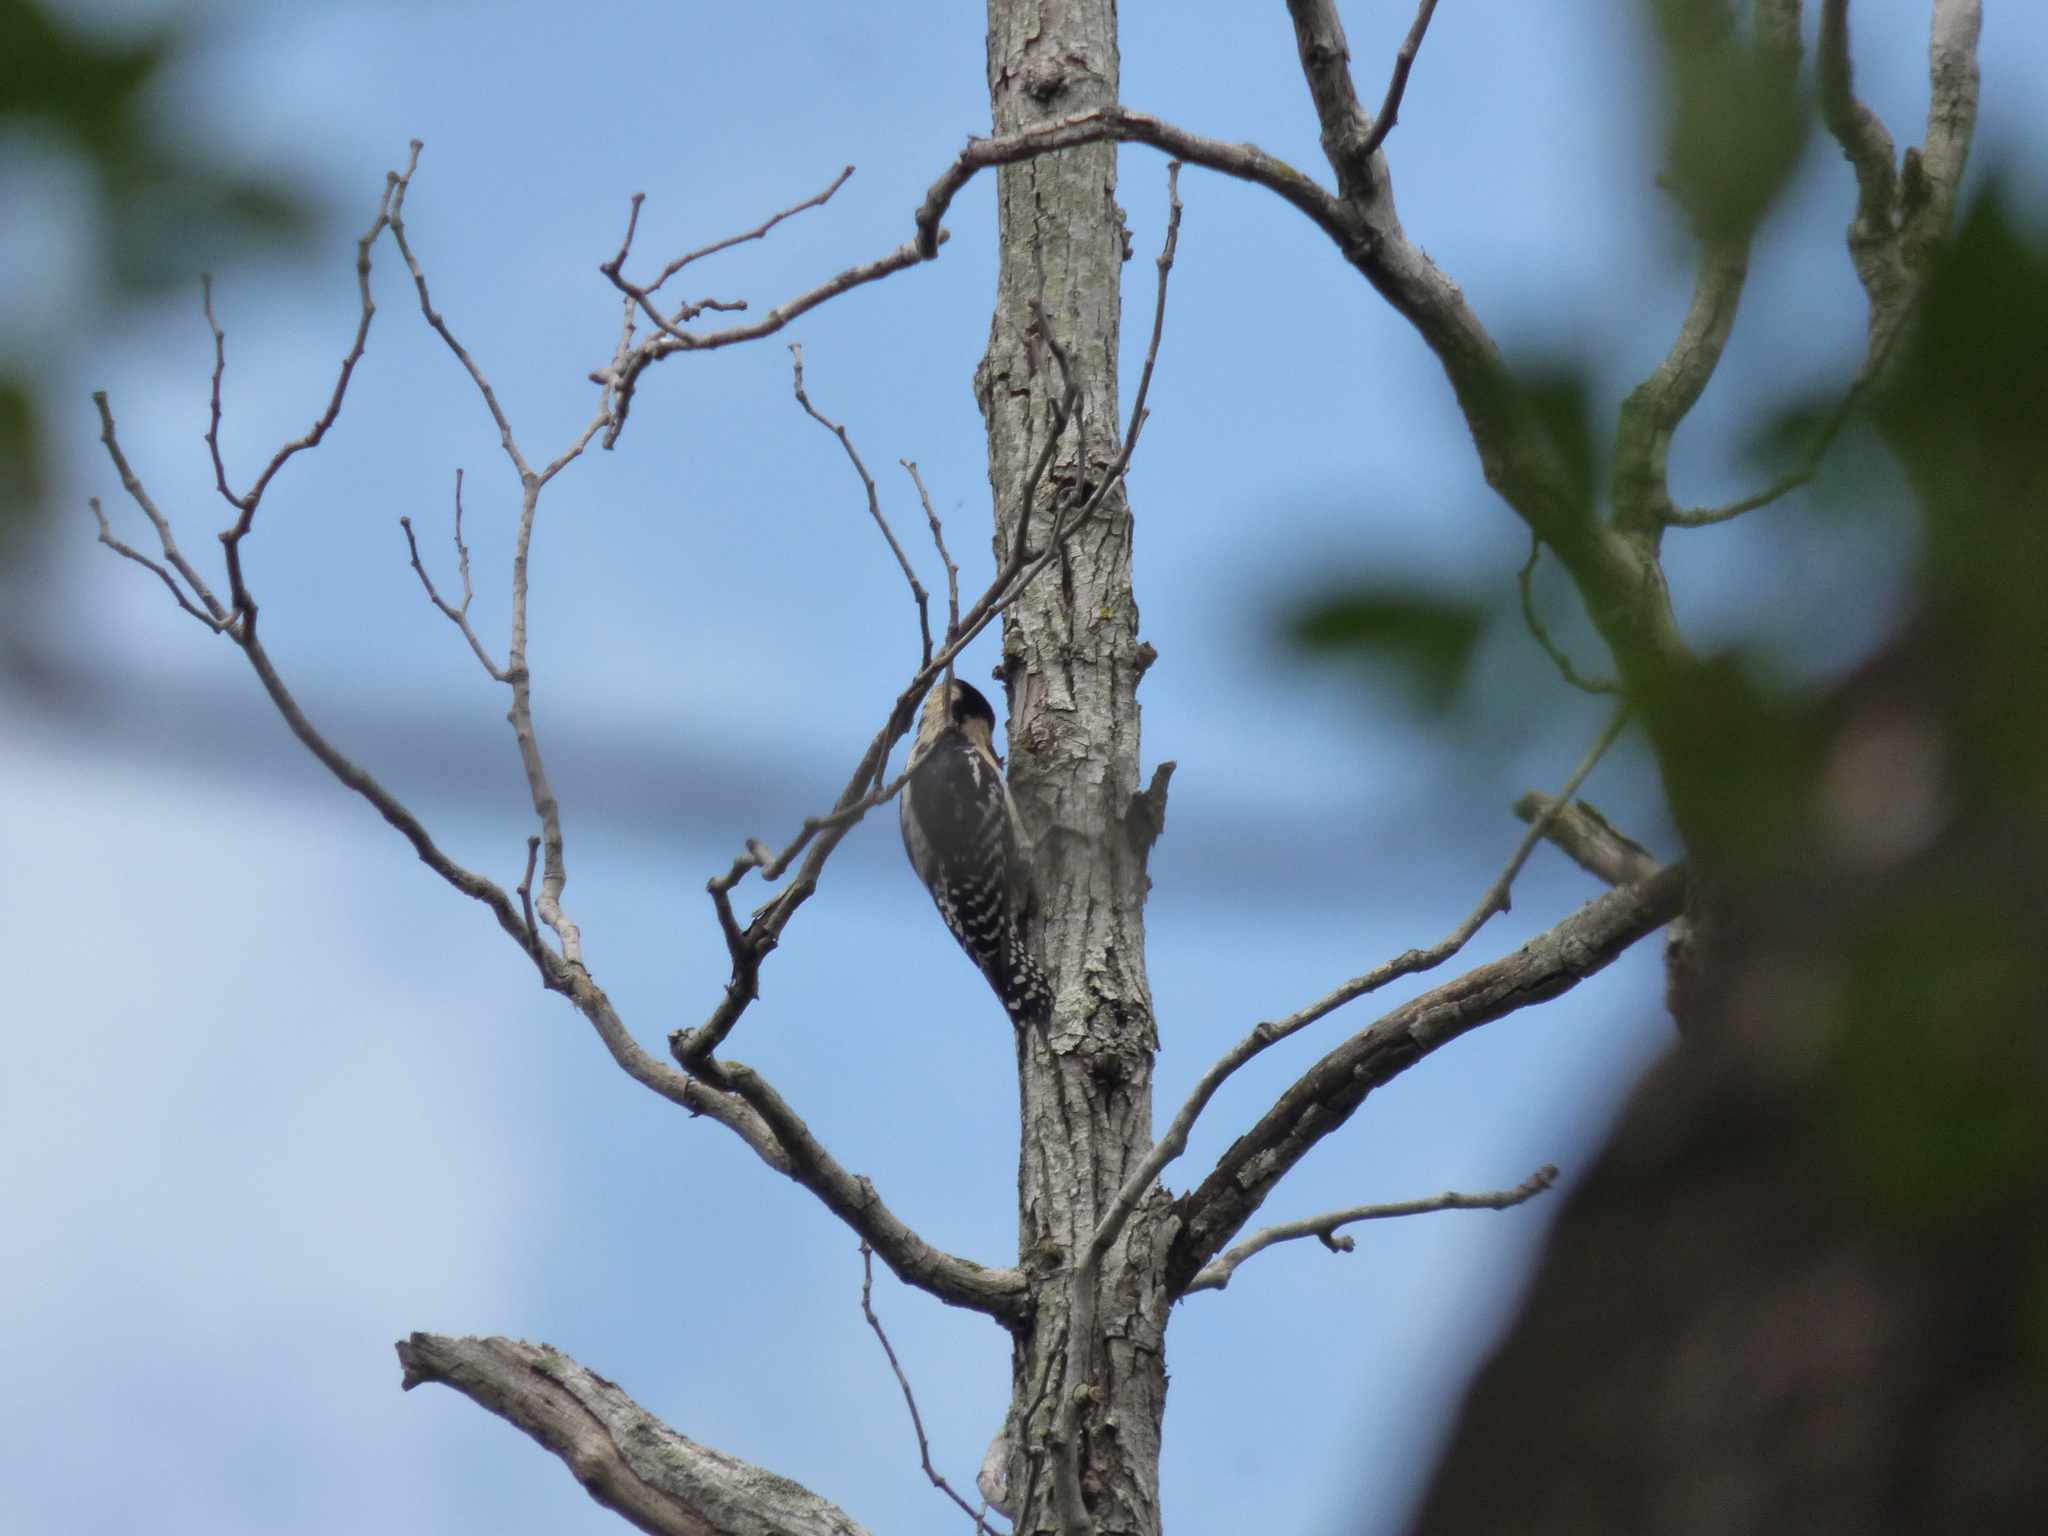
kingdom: Animalia
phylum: Chordata
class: Aves
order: Piciformes
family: Picidae
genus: Melanerpes
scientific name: Melanerpes cactorum
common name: White-fronted woodpecker
